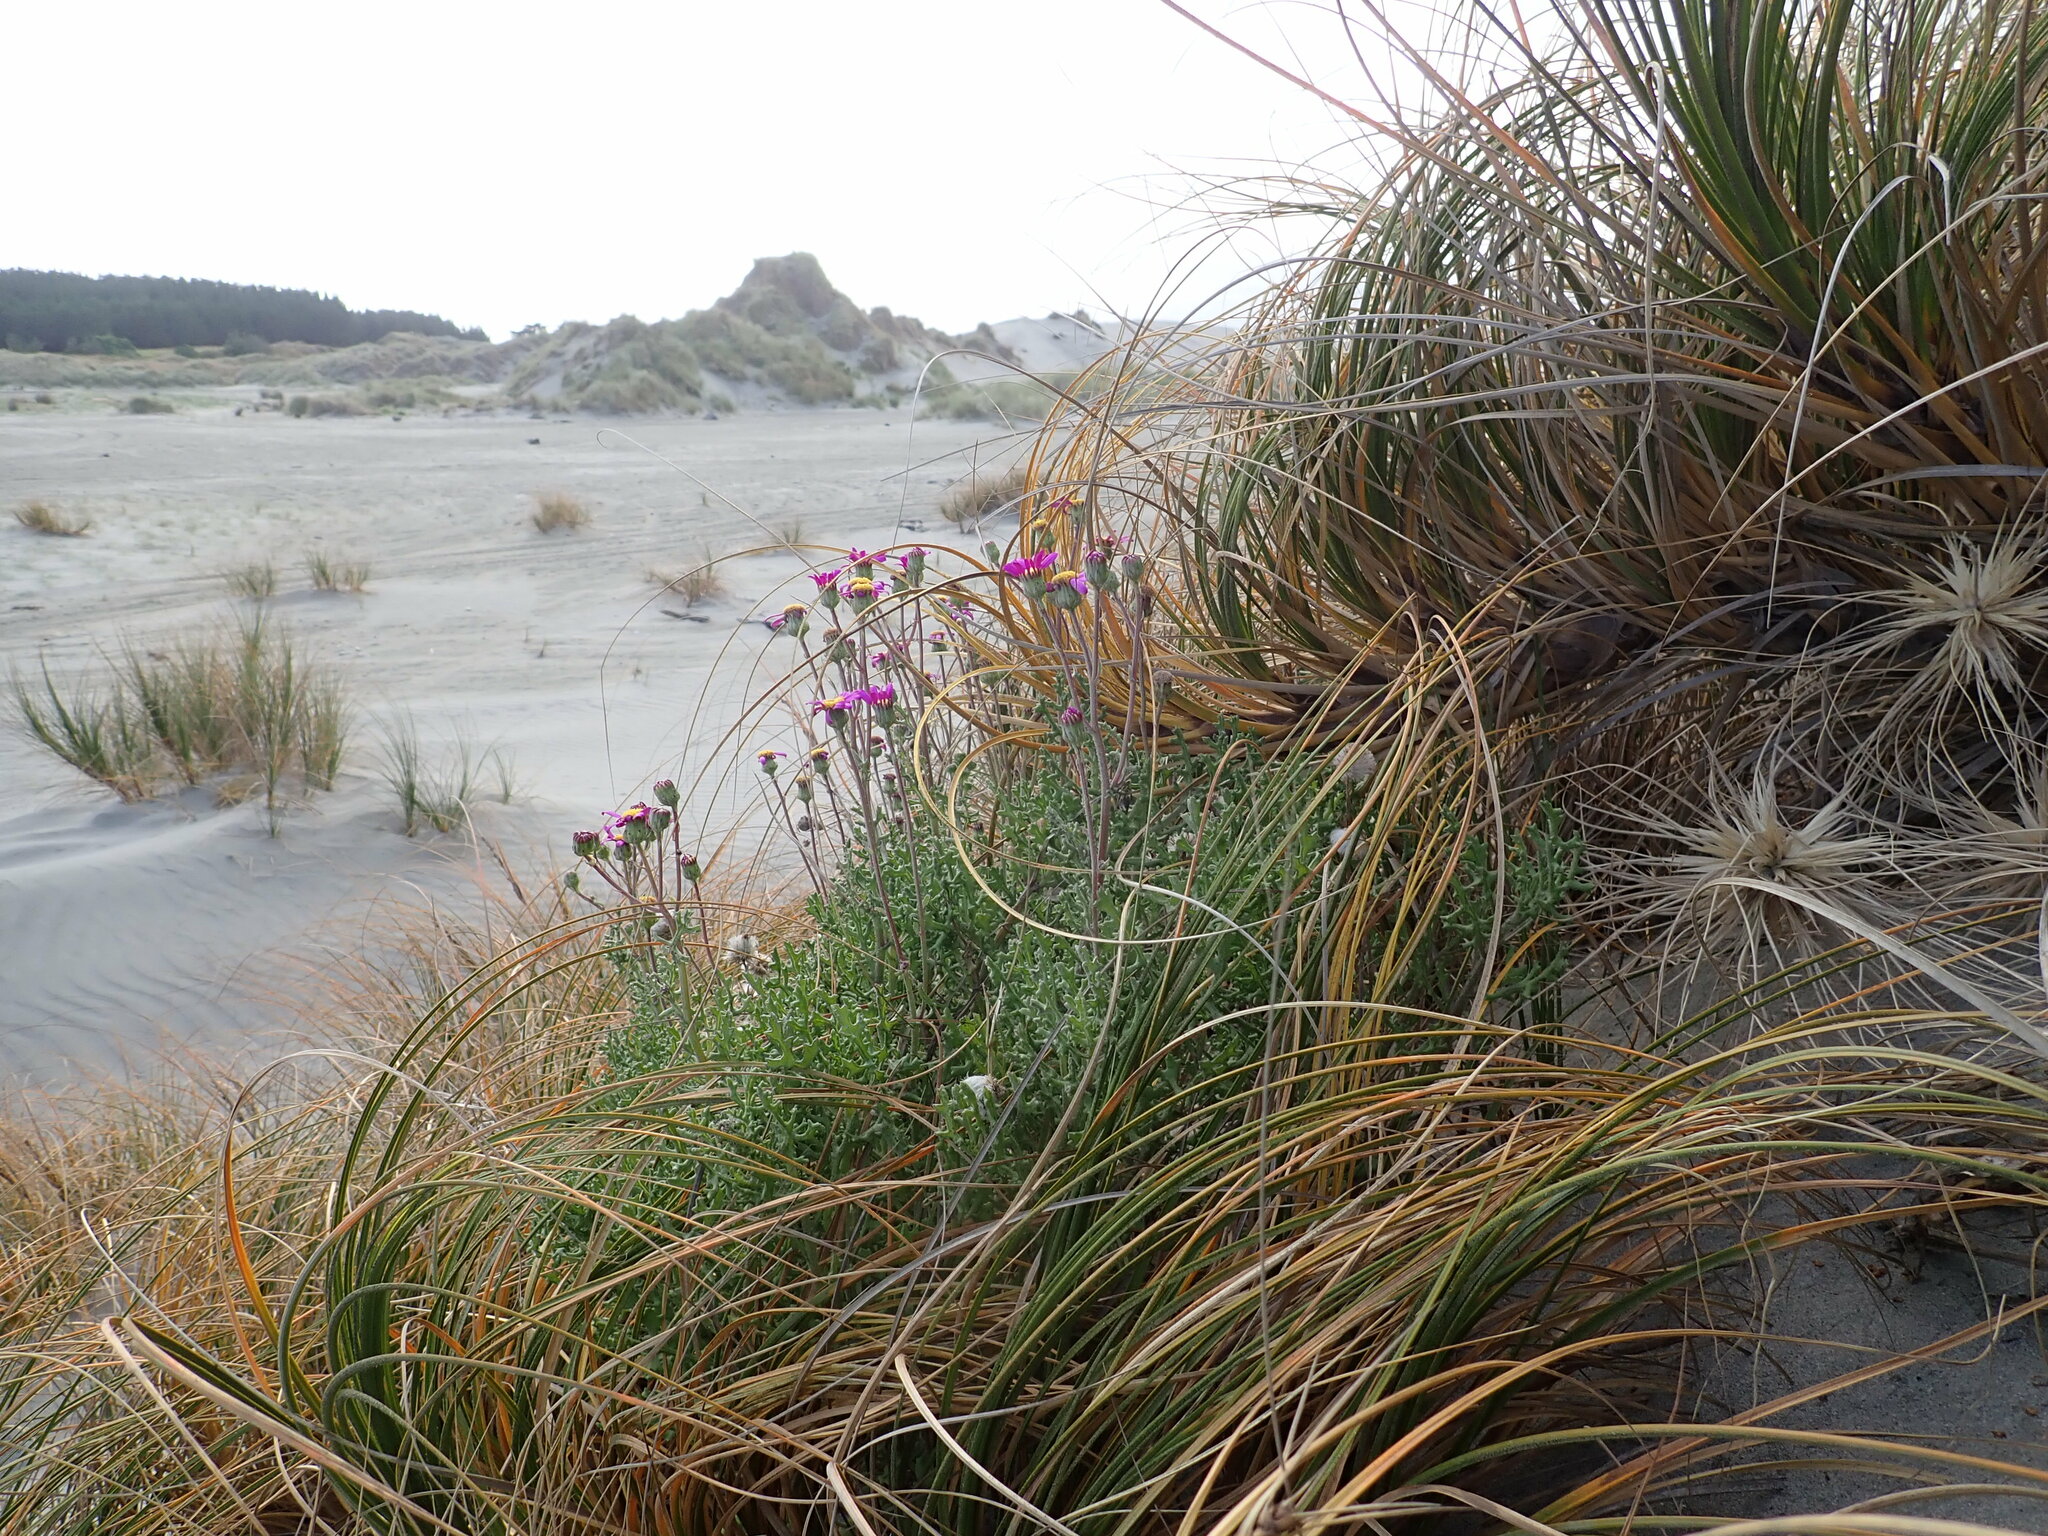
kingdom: Plantae
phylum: Tracheophyta
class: Magnoliopsida
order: Asterales
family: Asteraceae
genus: Senecio
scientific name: Senecio elegans
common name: Purple groundsel
